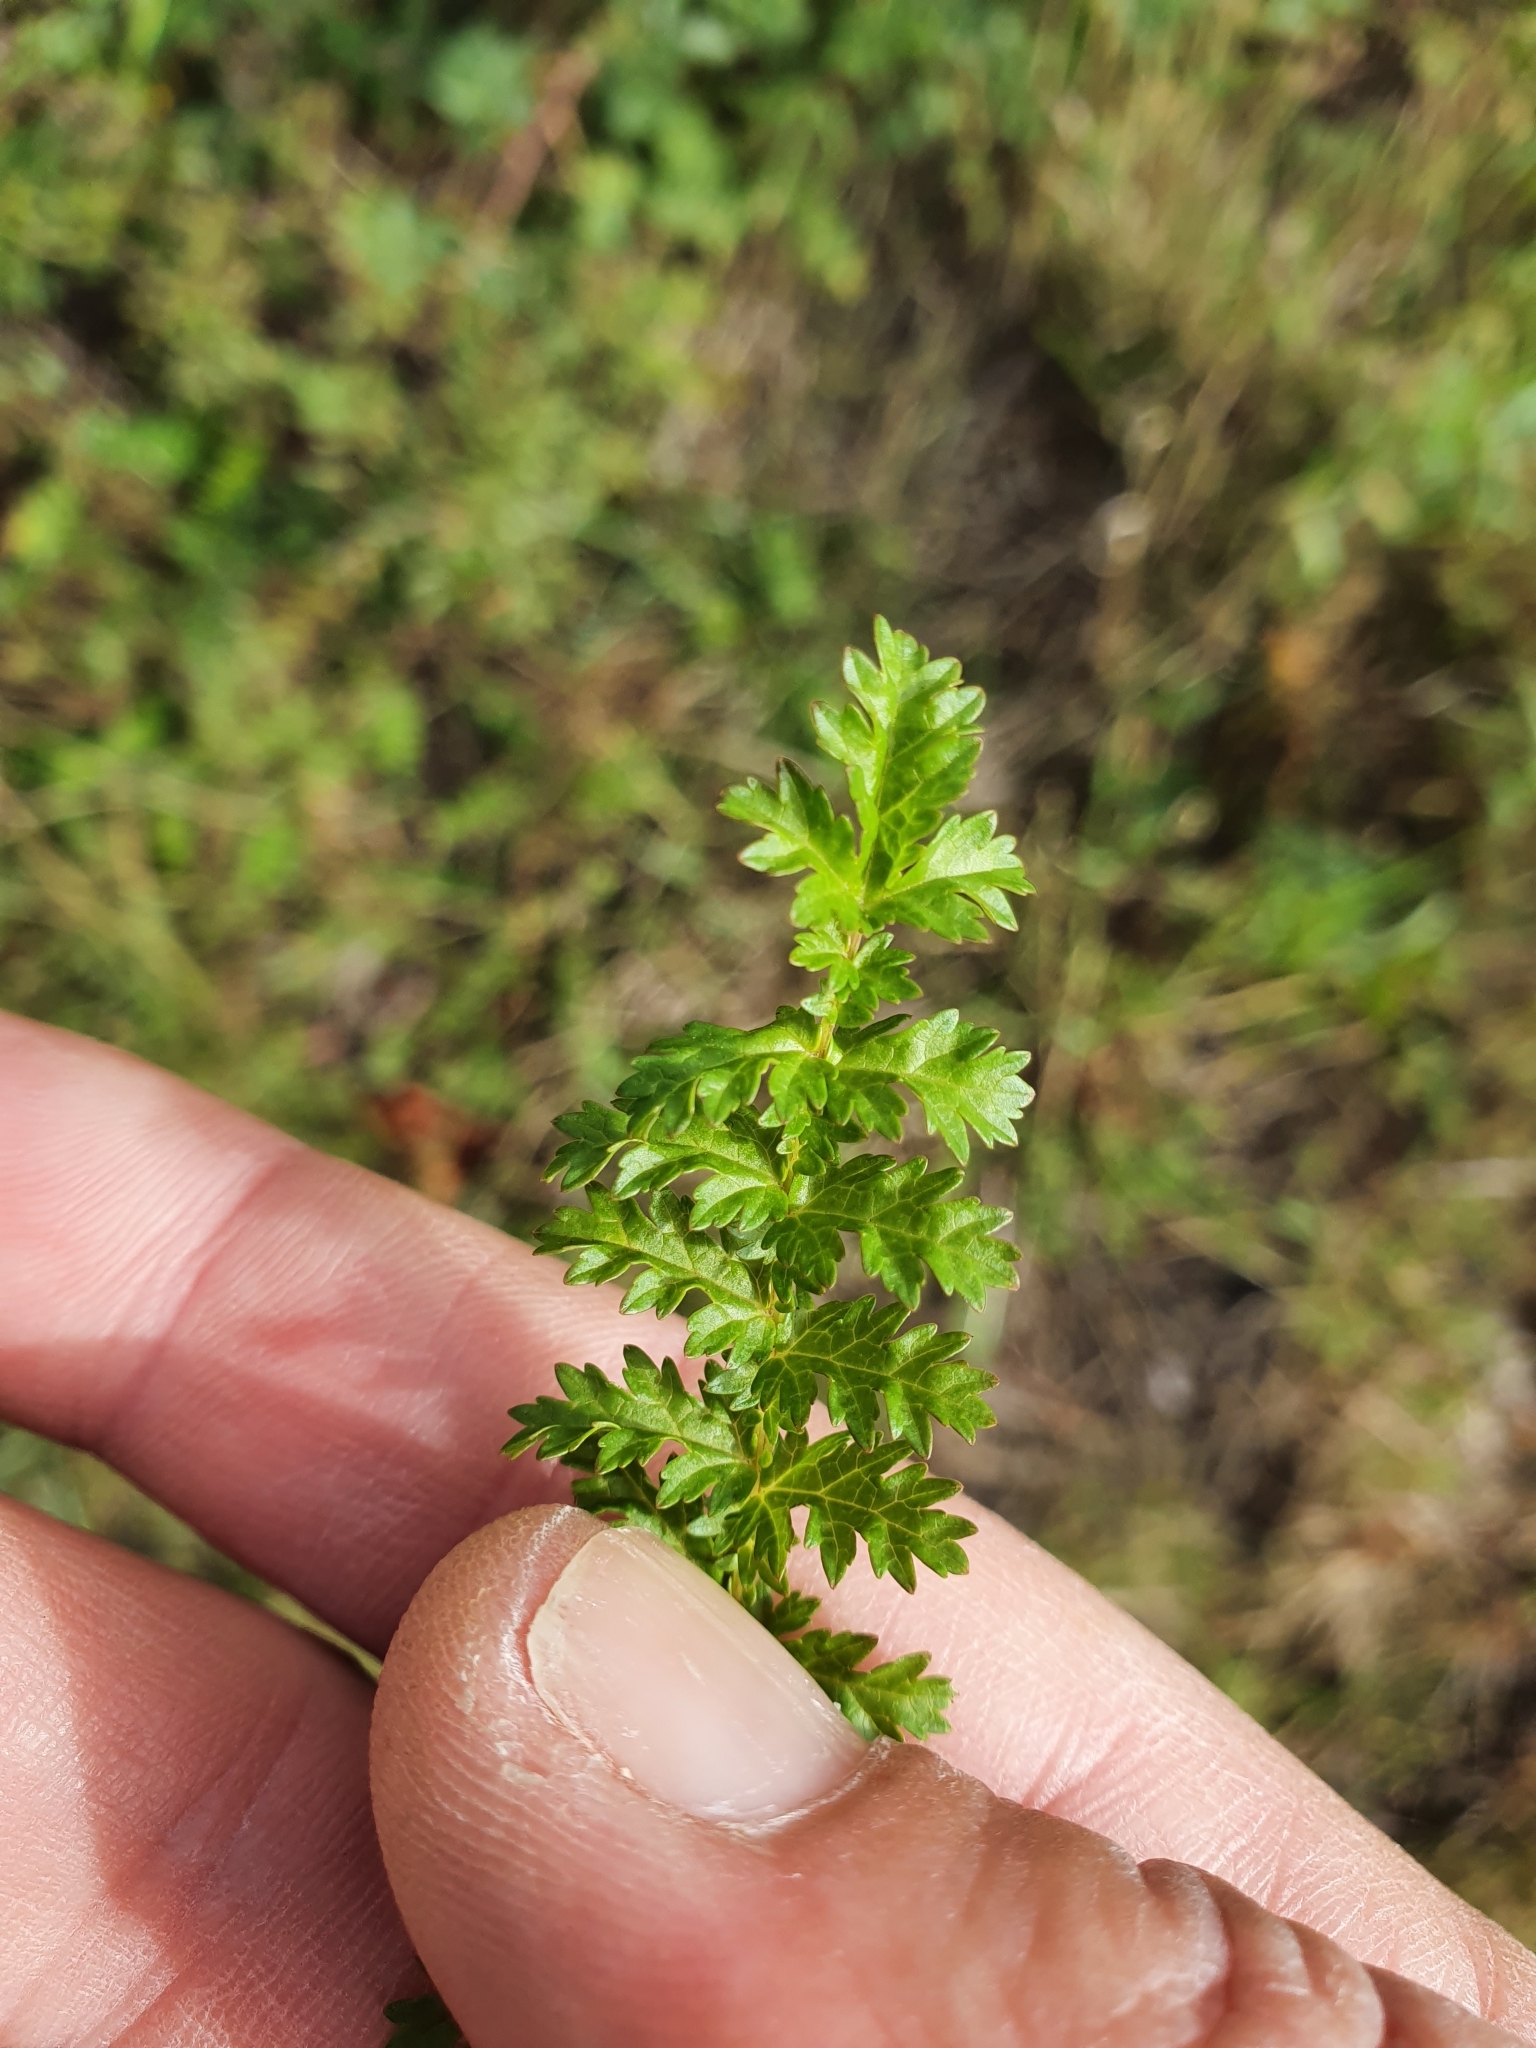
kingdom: Plantae
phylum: Tracheophyta
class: Magnoliopsida
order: Rosales
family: Rosaceae
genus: Filipendula
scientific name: Filipendula vulgaris
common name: Dropwort
